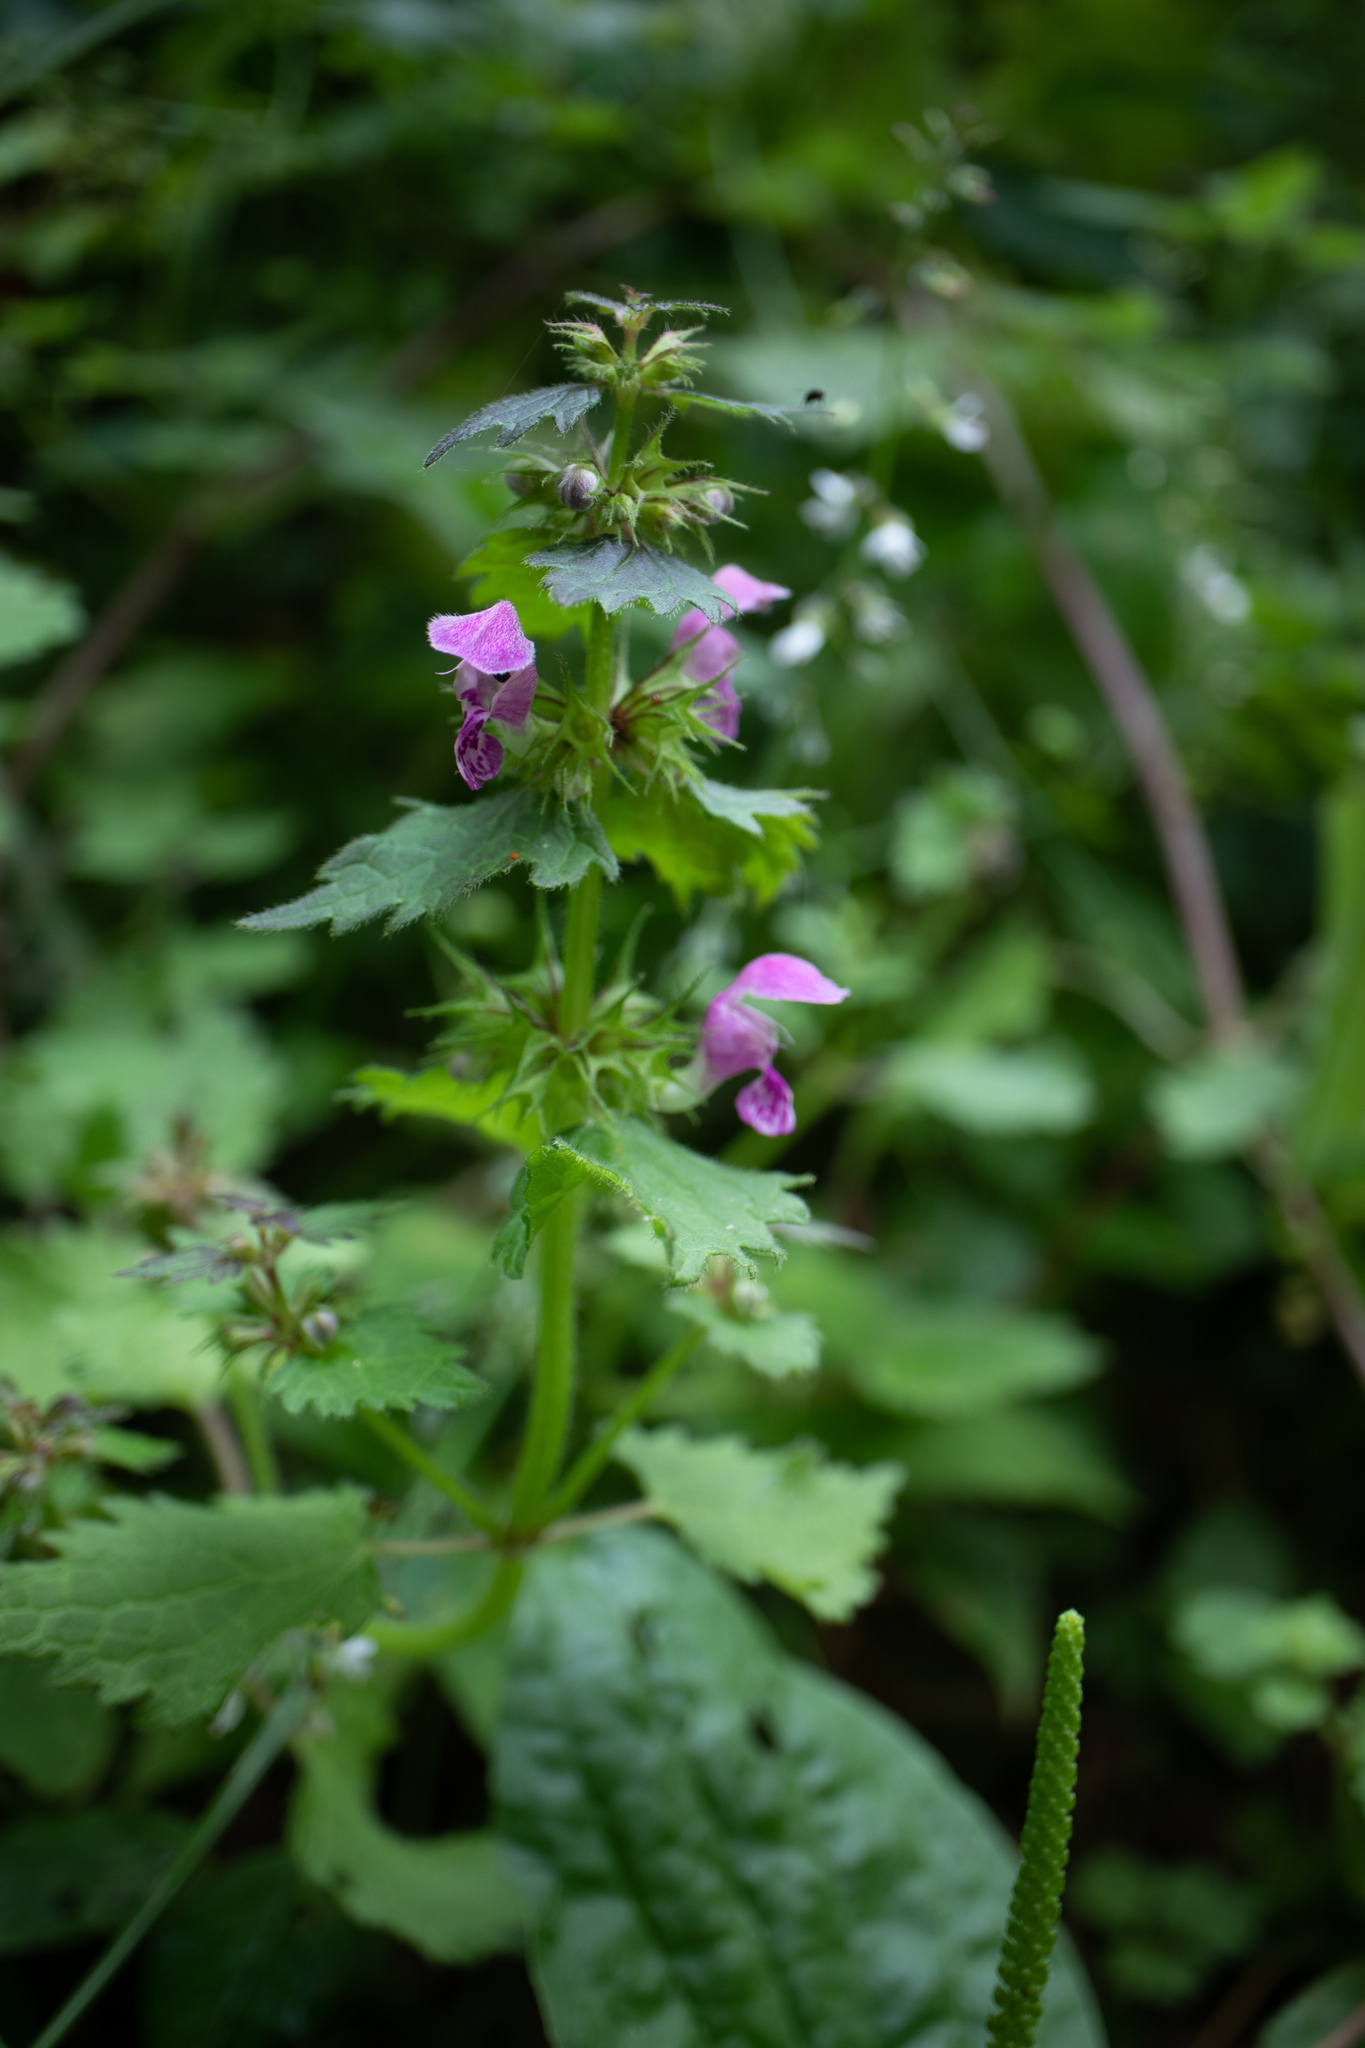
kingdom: Plantae
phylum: Tracheophyta
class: Magnoliopsida
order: Lamiales
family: Lamiaceae
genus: Lamium
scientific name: Lamium maculatum
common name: Spotted dead-nettle
